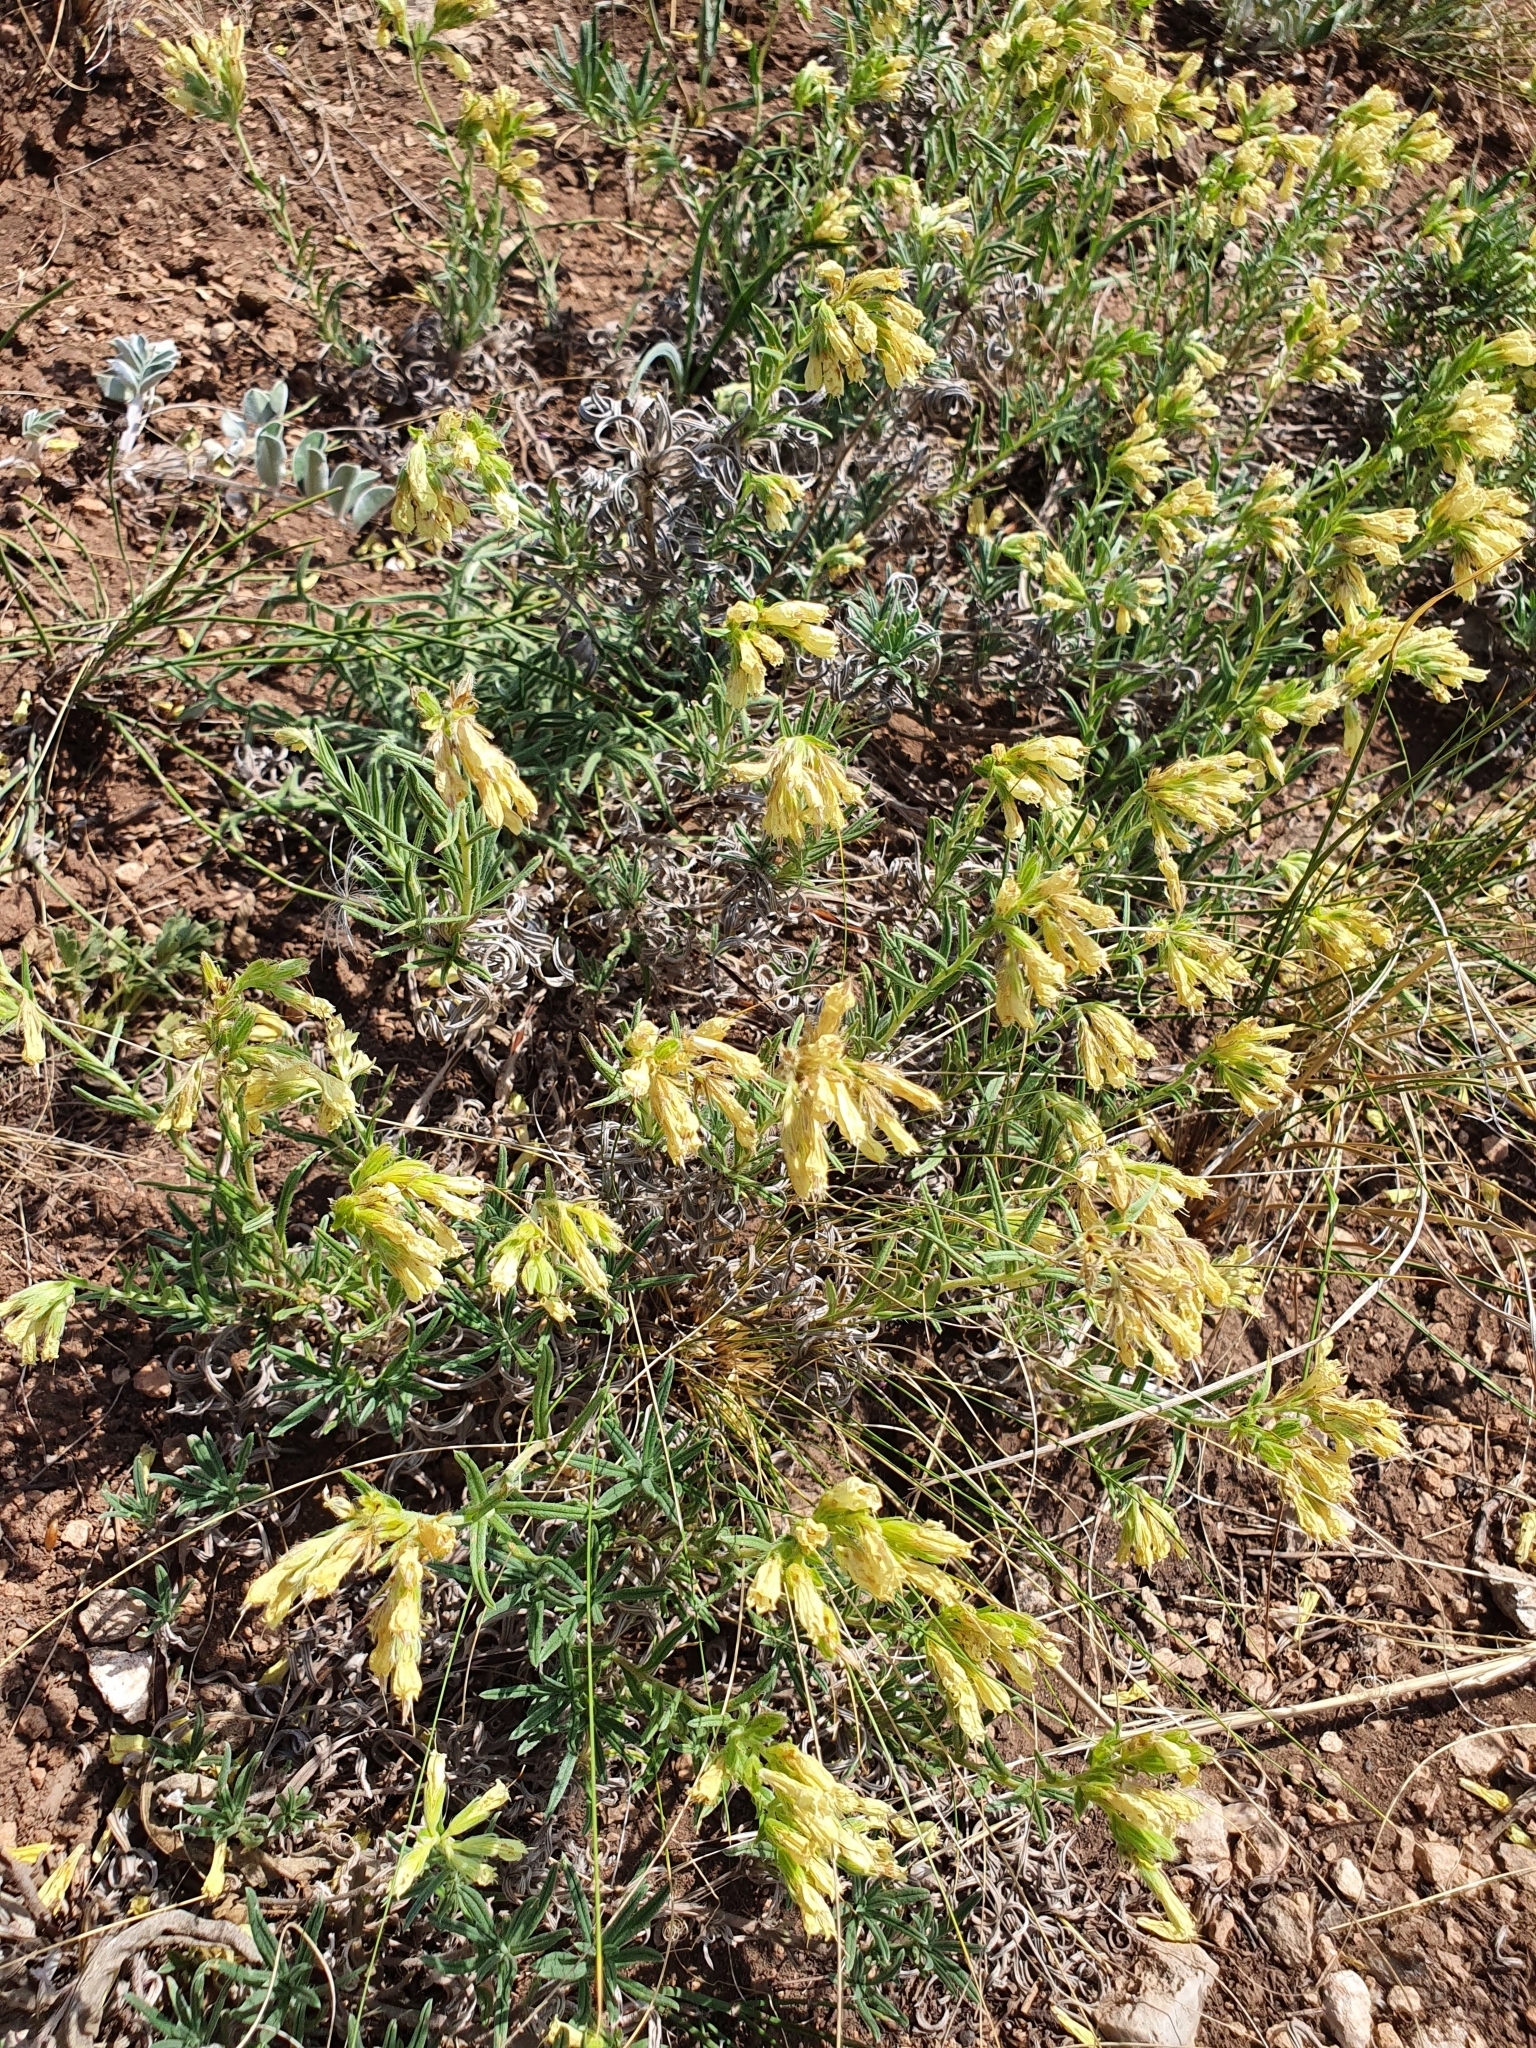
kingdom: Plantae
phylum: Tracheophyta
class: Magnoliopsida
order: Boraginales
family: Boraginaceae
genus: Onosma
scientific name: Onosma simplicissima
